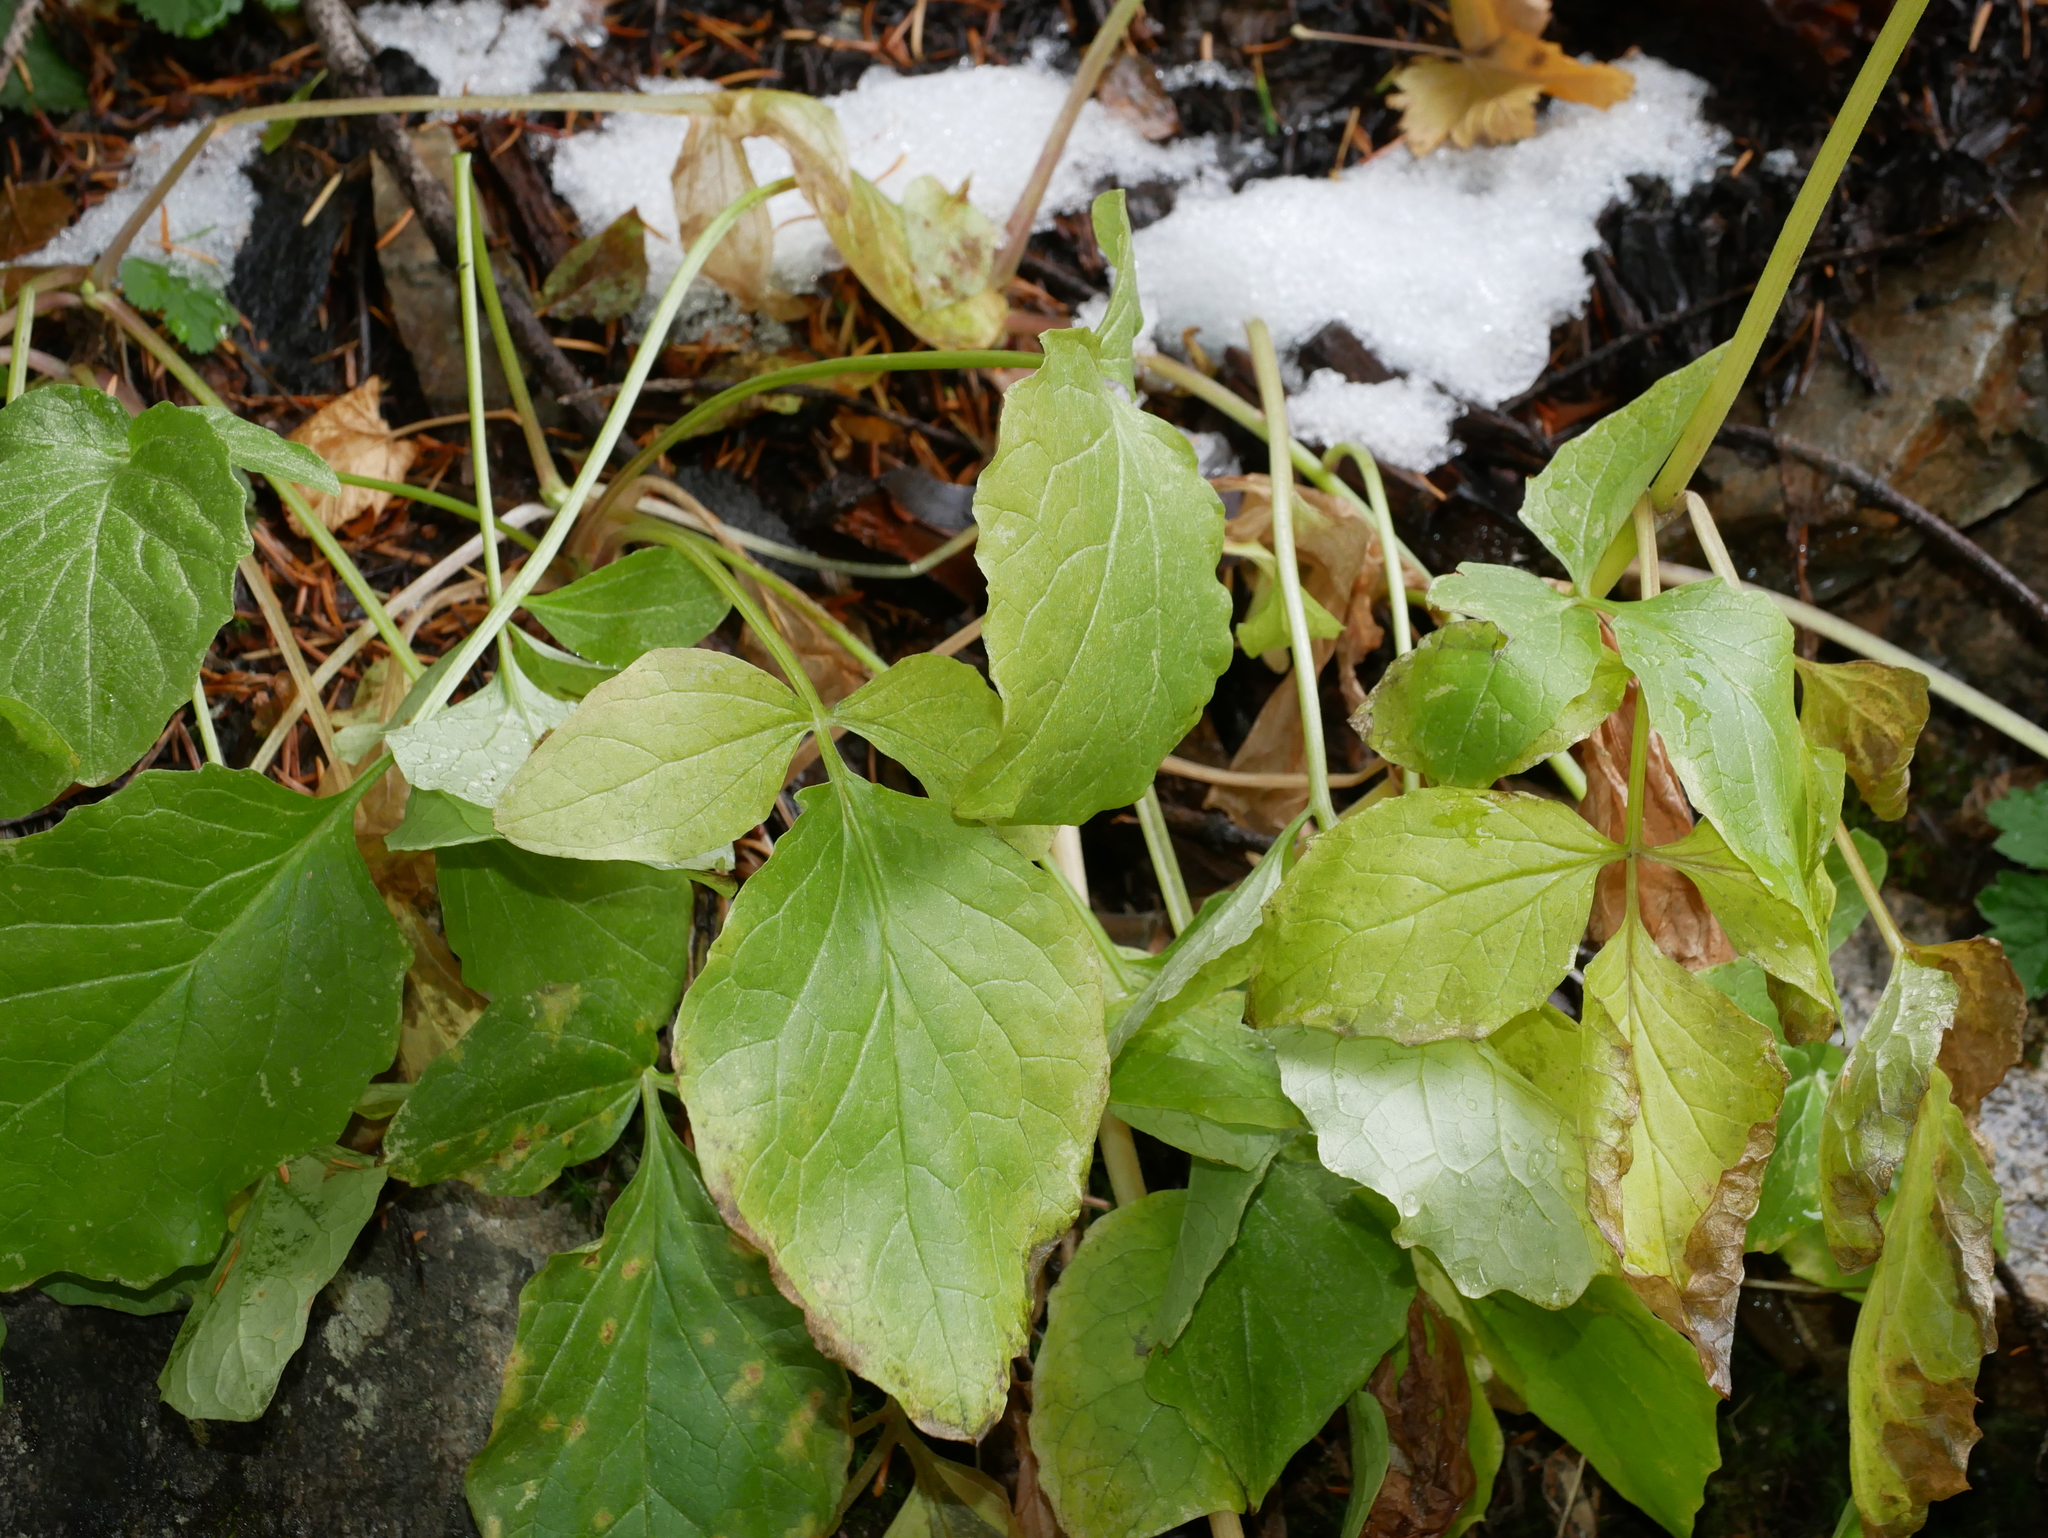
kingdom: Plantae
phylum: Tracheophyta
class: Magnoliopsida
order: Dipsacales
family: Caprifoliaceae
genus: Valeriana
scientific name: Valeriana sitchensis
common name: Pacific valerian
